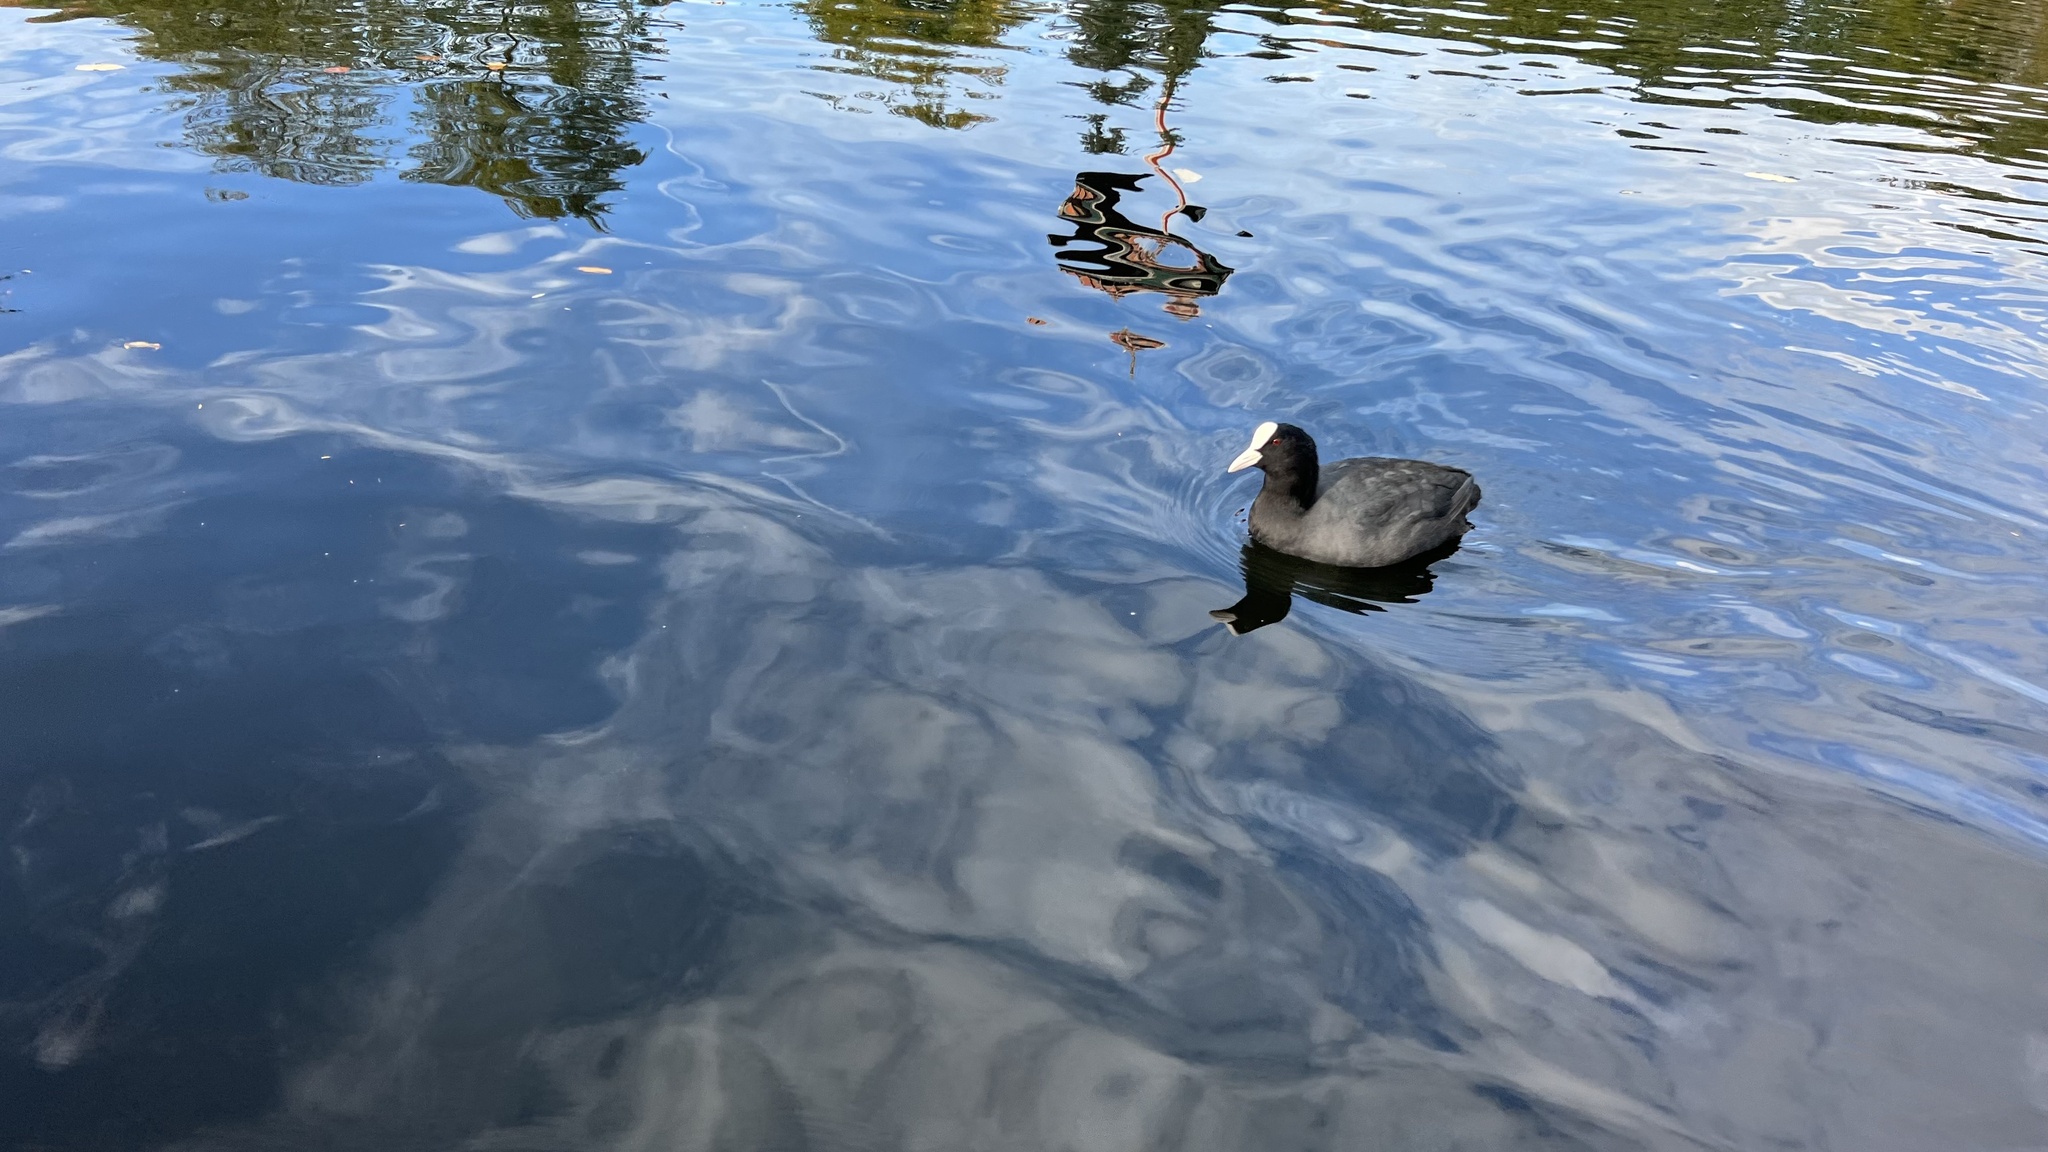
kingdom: Animalia
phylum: Chordata
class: Aves
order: Gruiformes
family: Rallidae
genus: Fulica
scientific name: Fulica atra
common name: Eurasian coot
